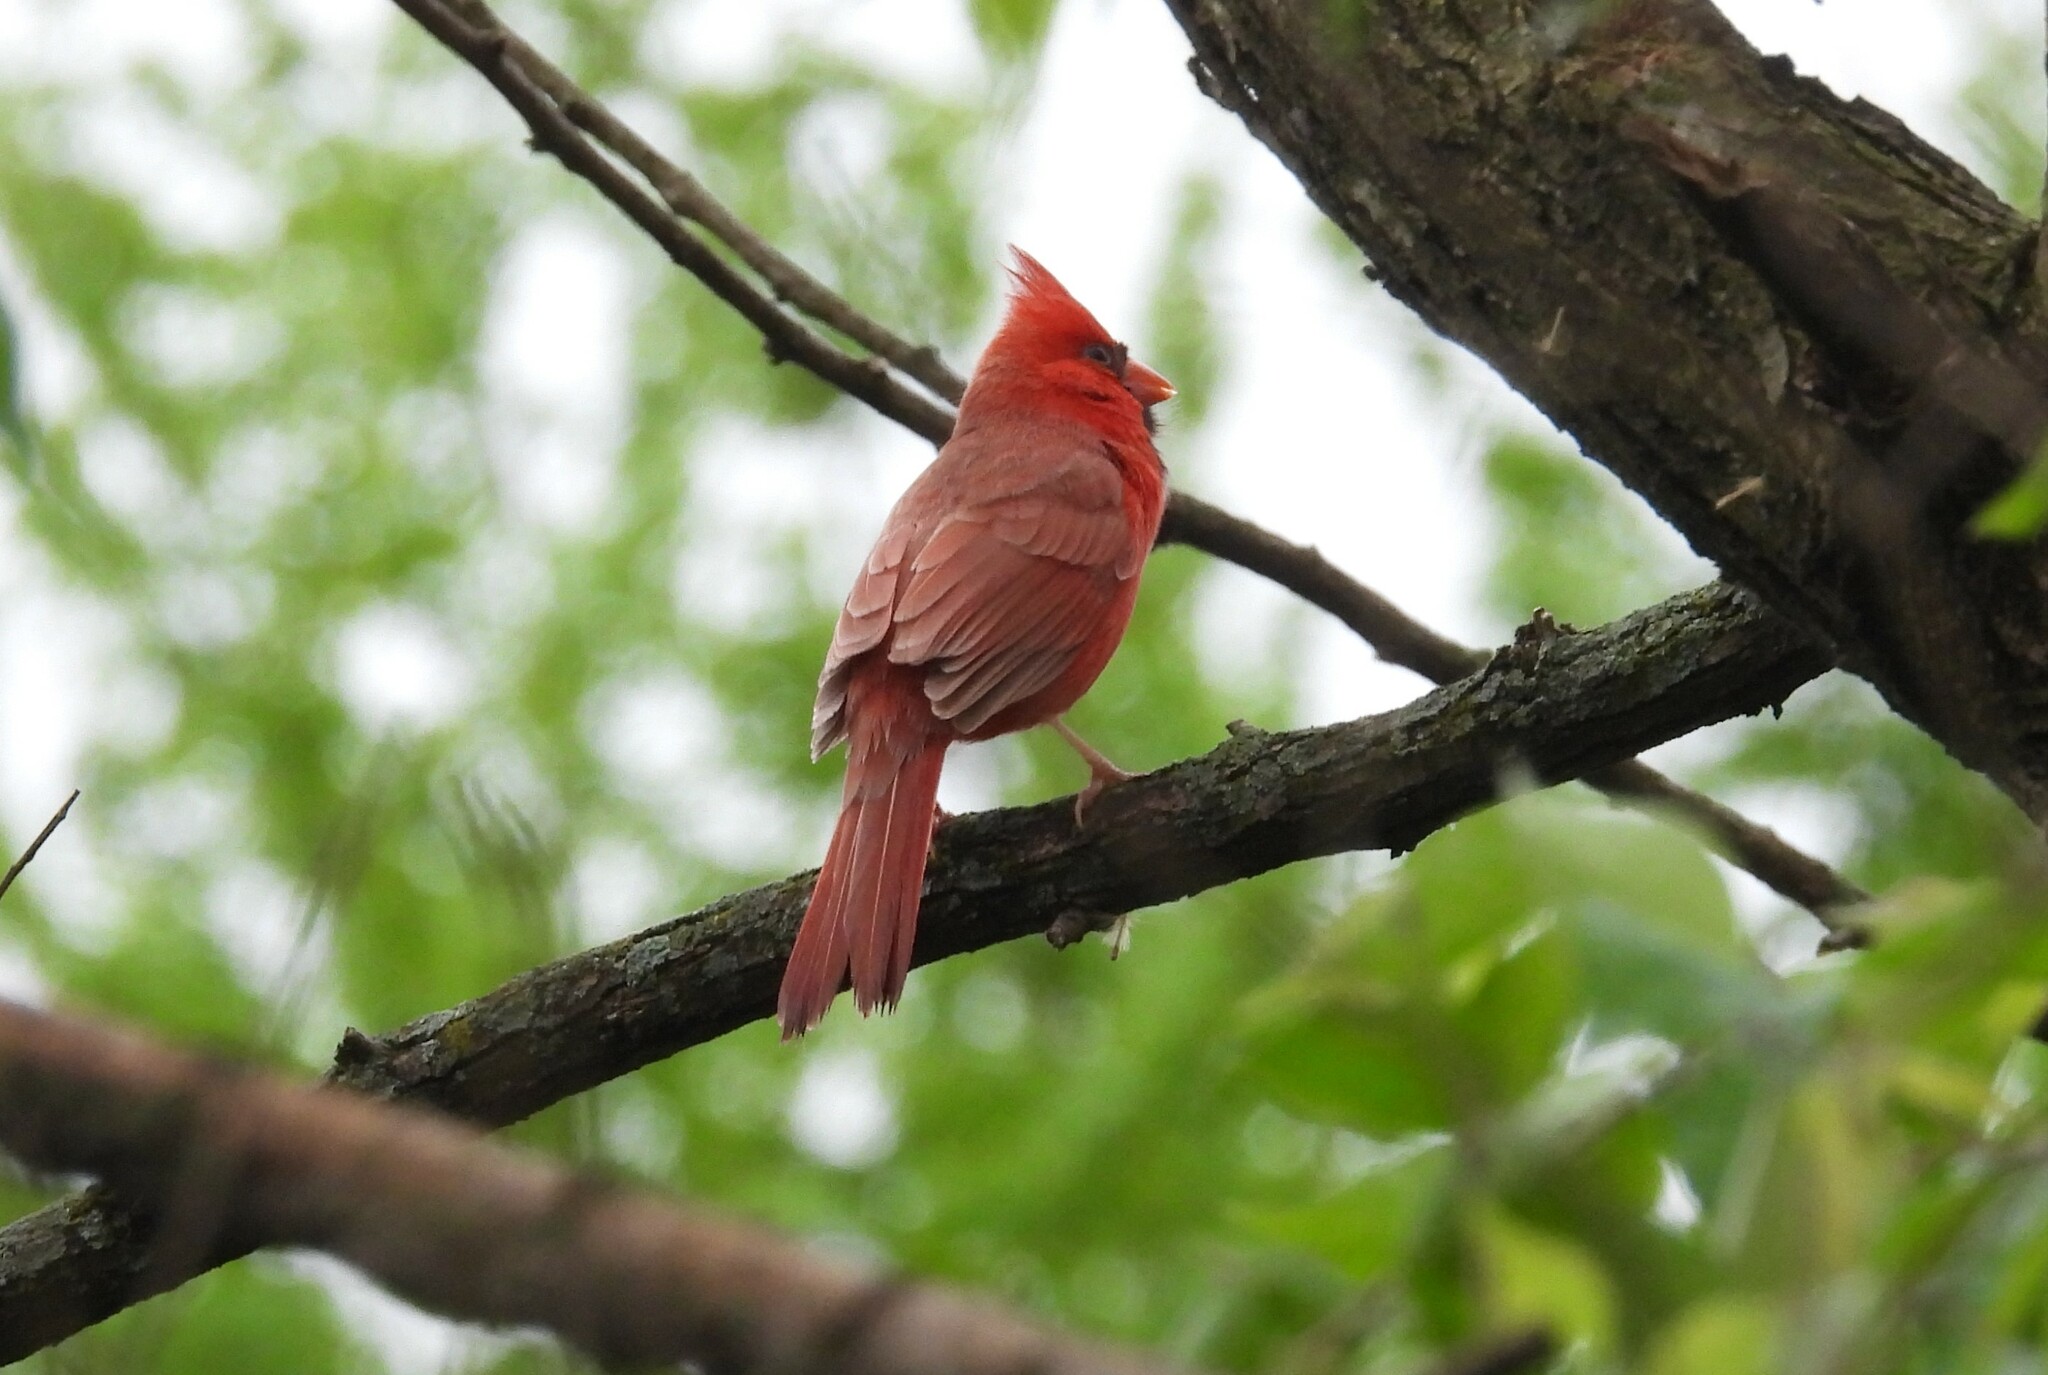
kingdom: Animalia
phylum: Chordata
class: Aves
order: Passeriformes
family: Cardinalidae
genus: Cardinalis
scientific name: Cardinalis cardinalis
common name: Northern cardinal
